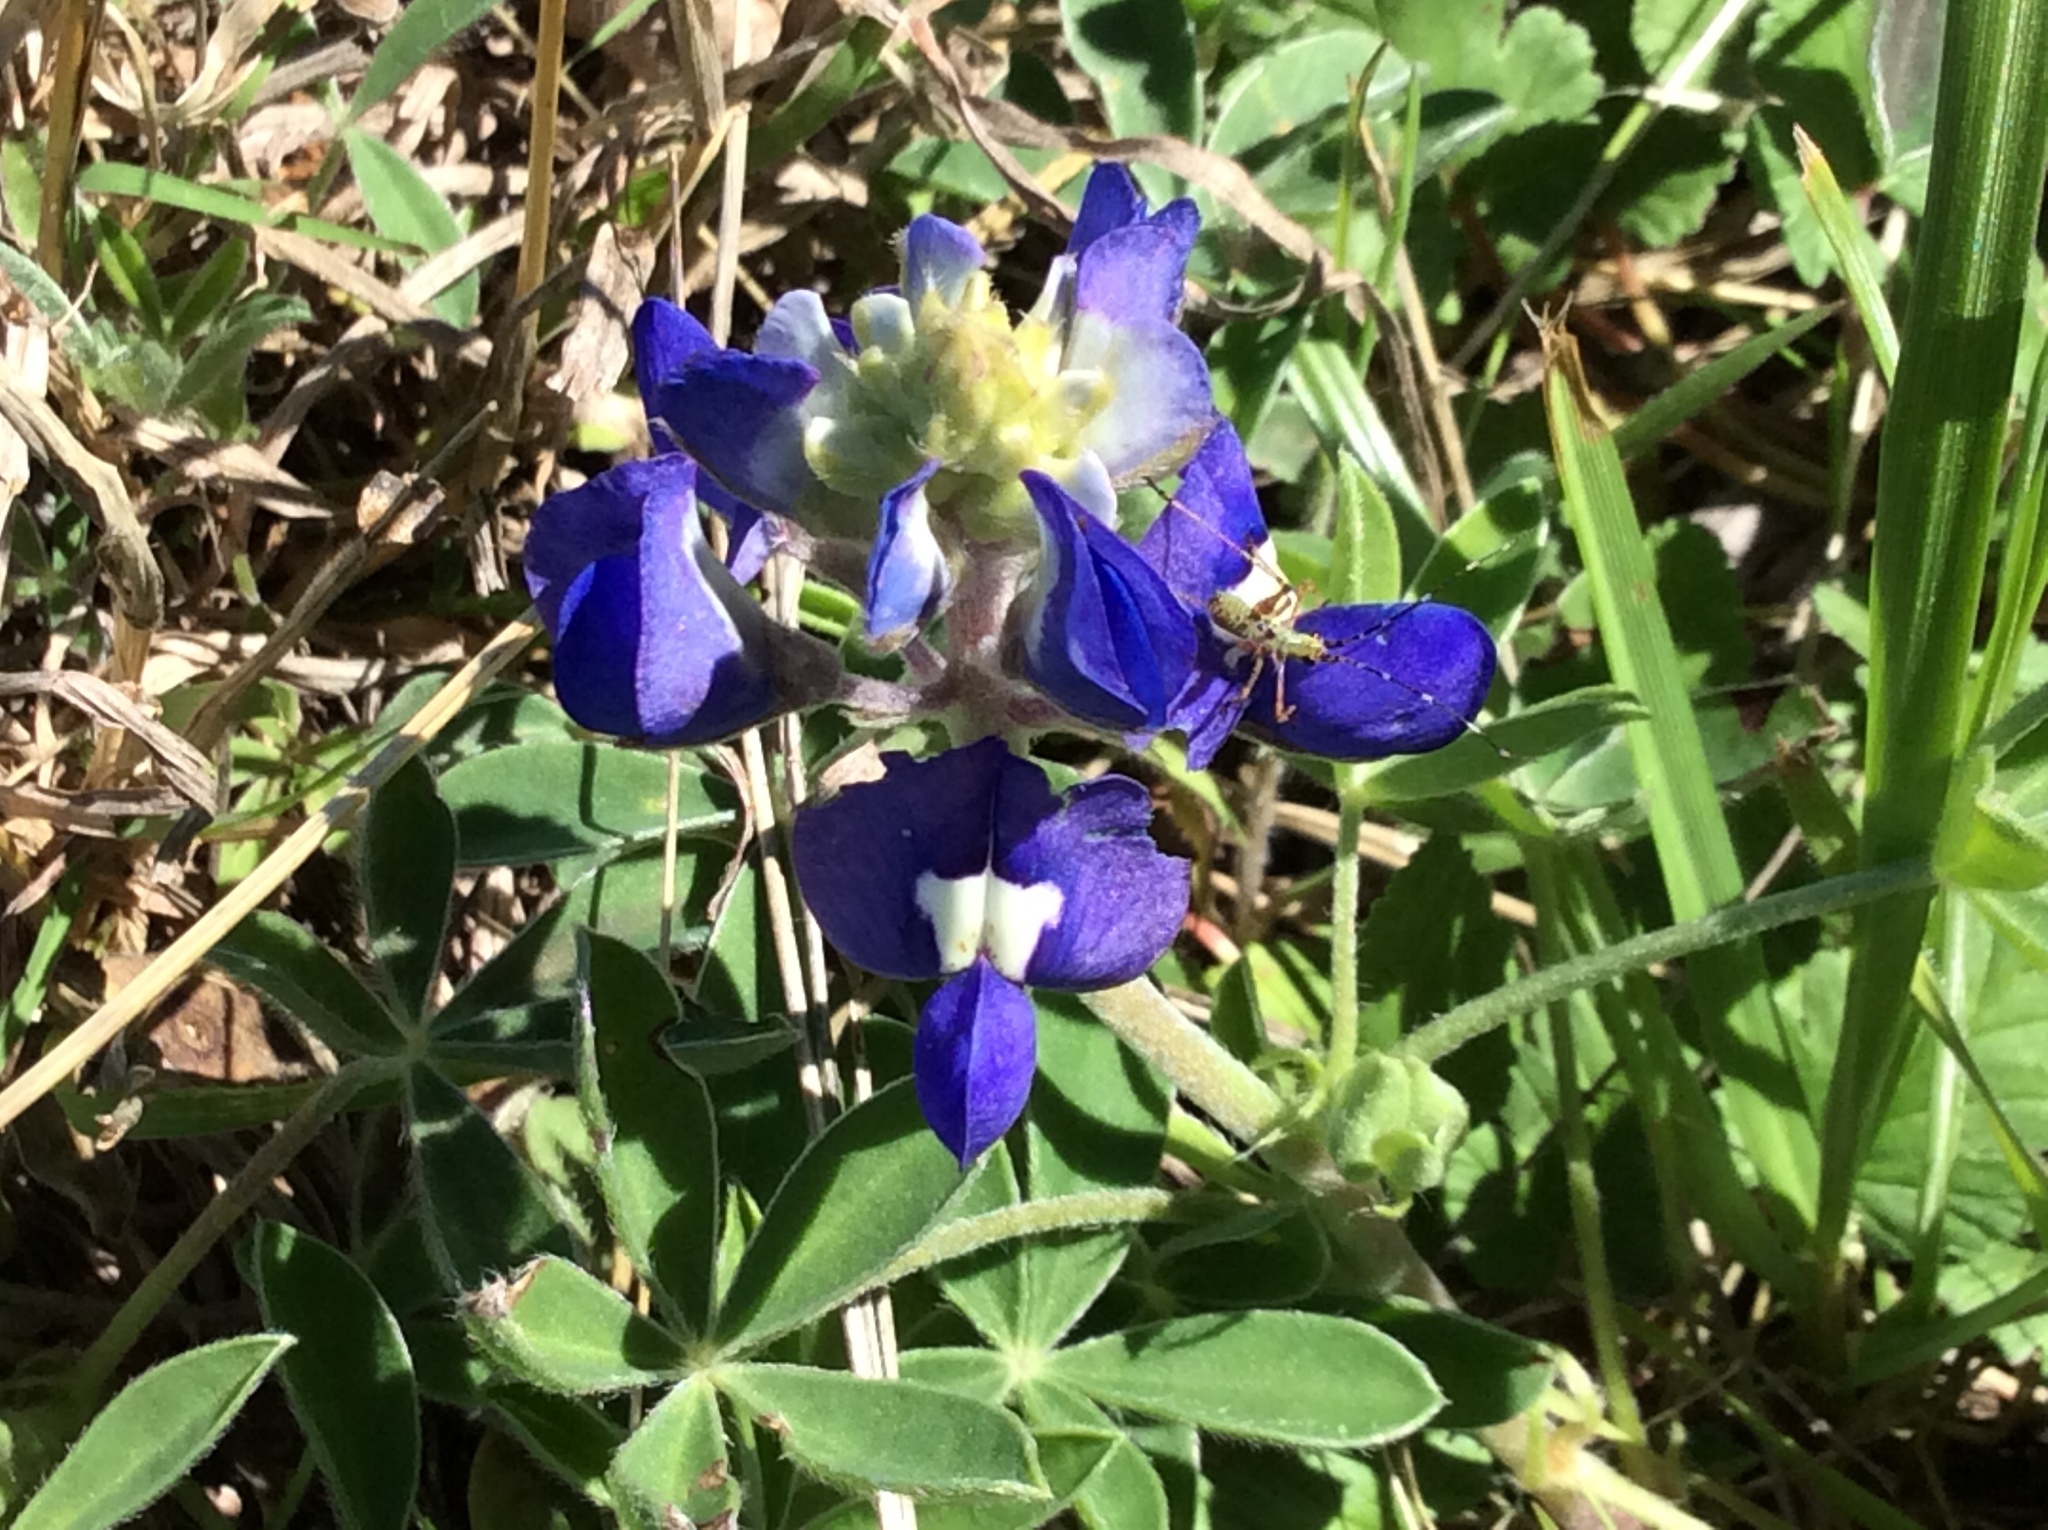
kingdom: Plantae
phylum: Tracheophyta
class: Magnoliopsida
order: Fabales
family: Fabaceae
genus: Lupinus
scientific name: Lupinus texensis
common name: Texas bluebonnet
